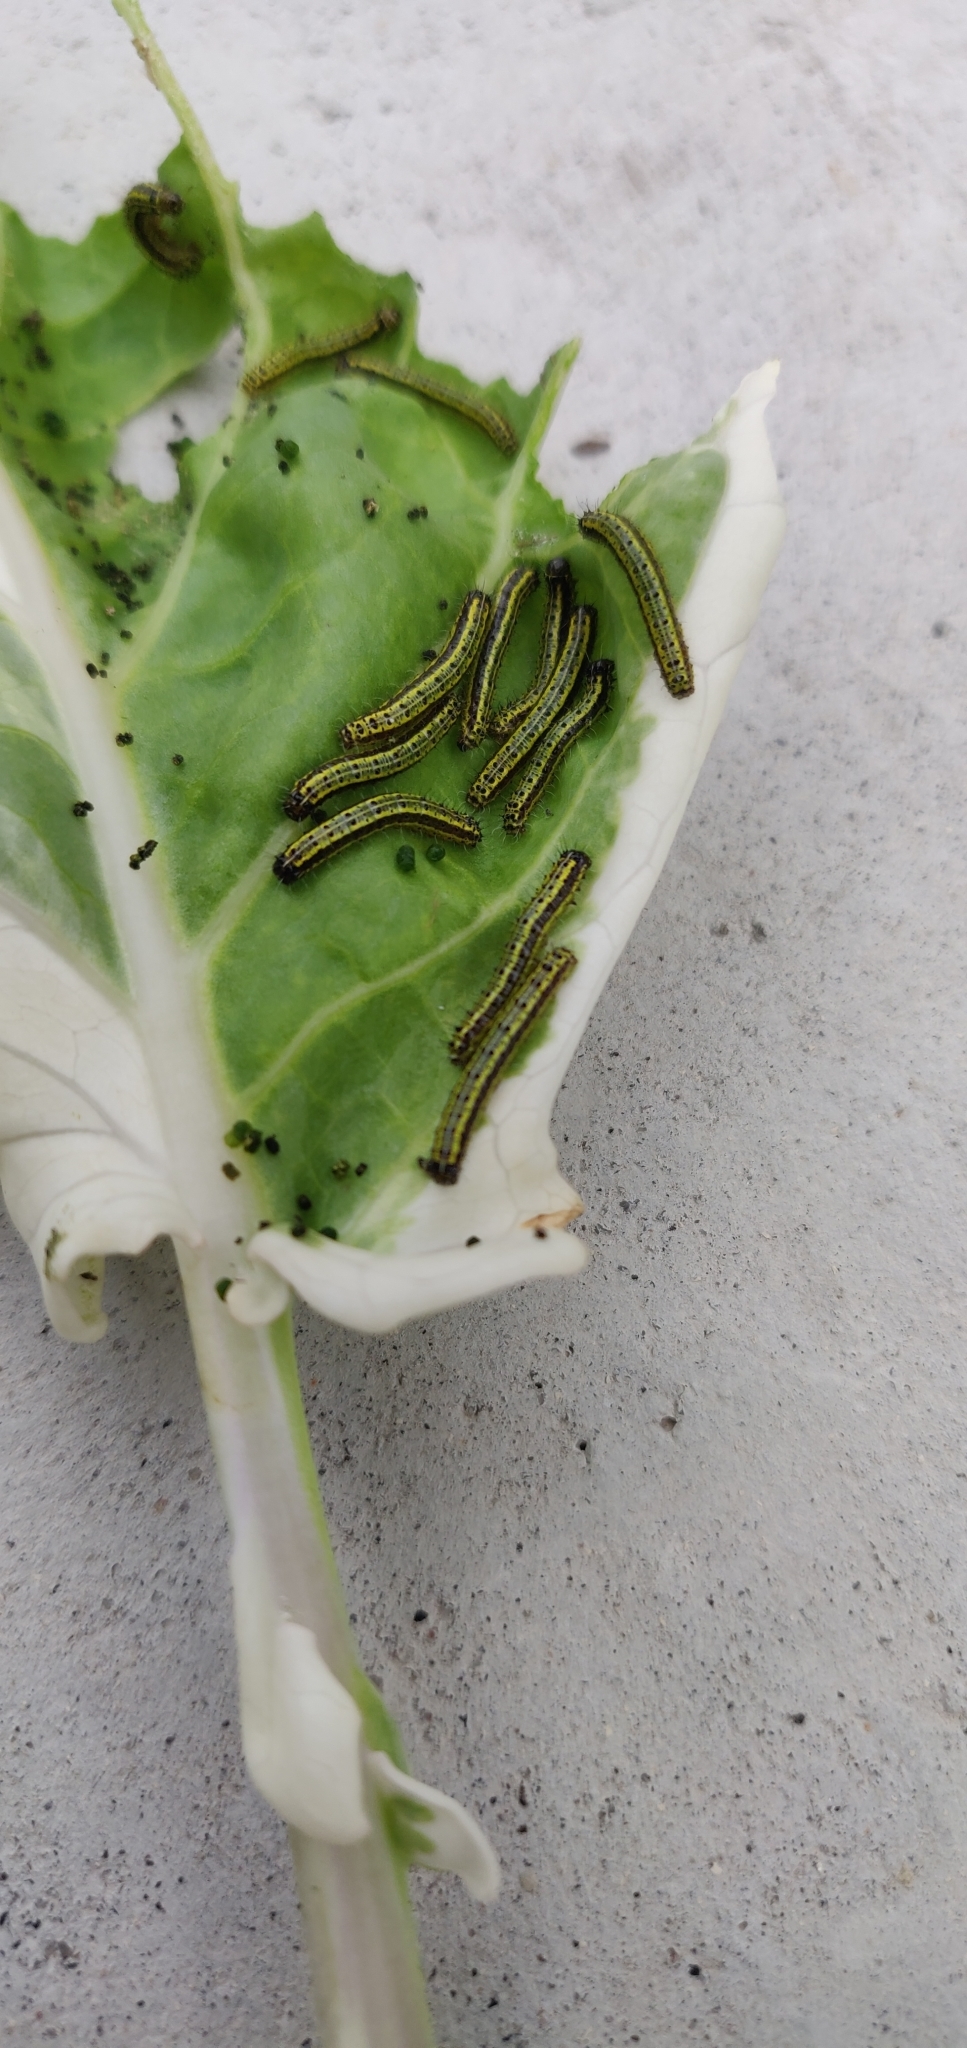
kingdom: Animalia
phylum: Arthropoda
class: Insecta
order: Lepidoptera
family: Pieridae
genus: Ascia
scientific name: Ascia monuste
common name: Great southern white
